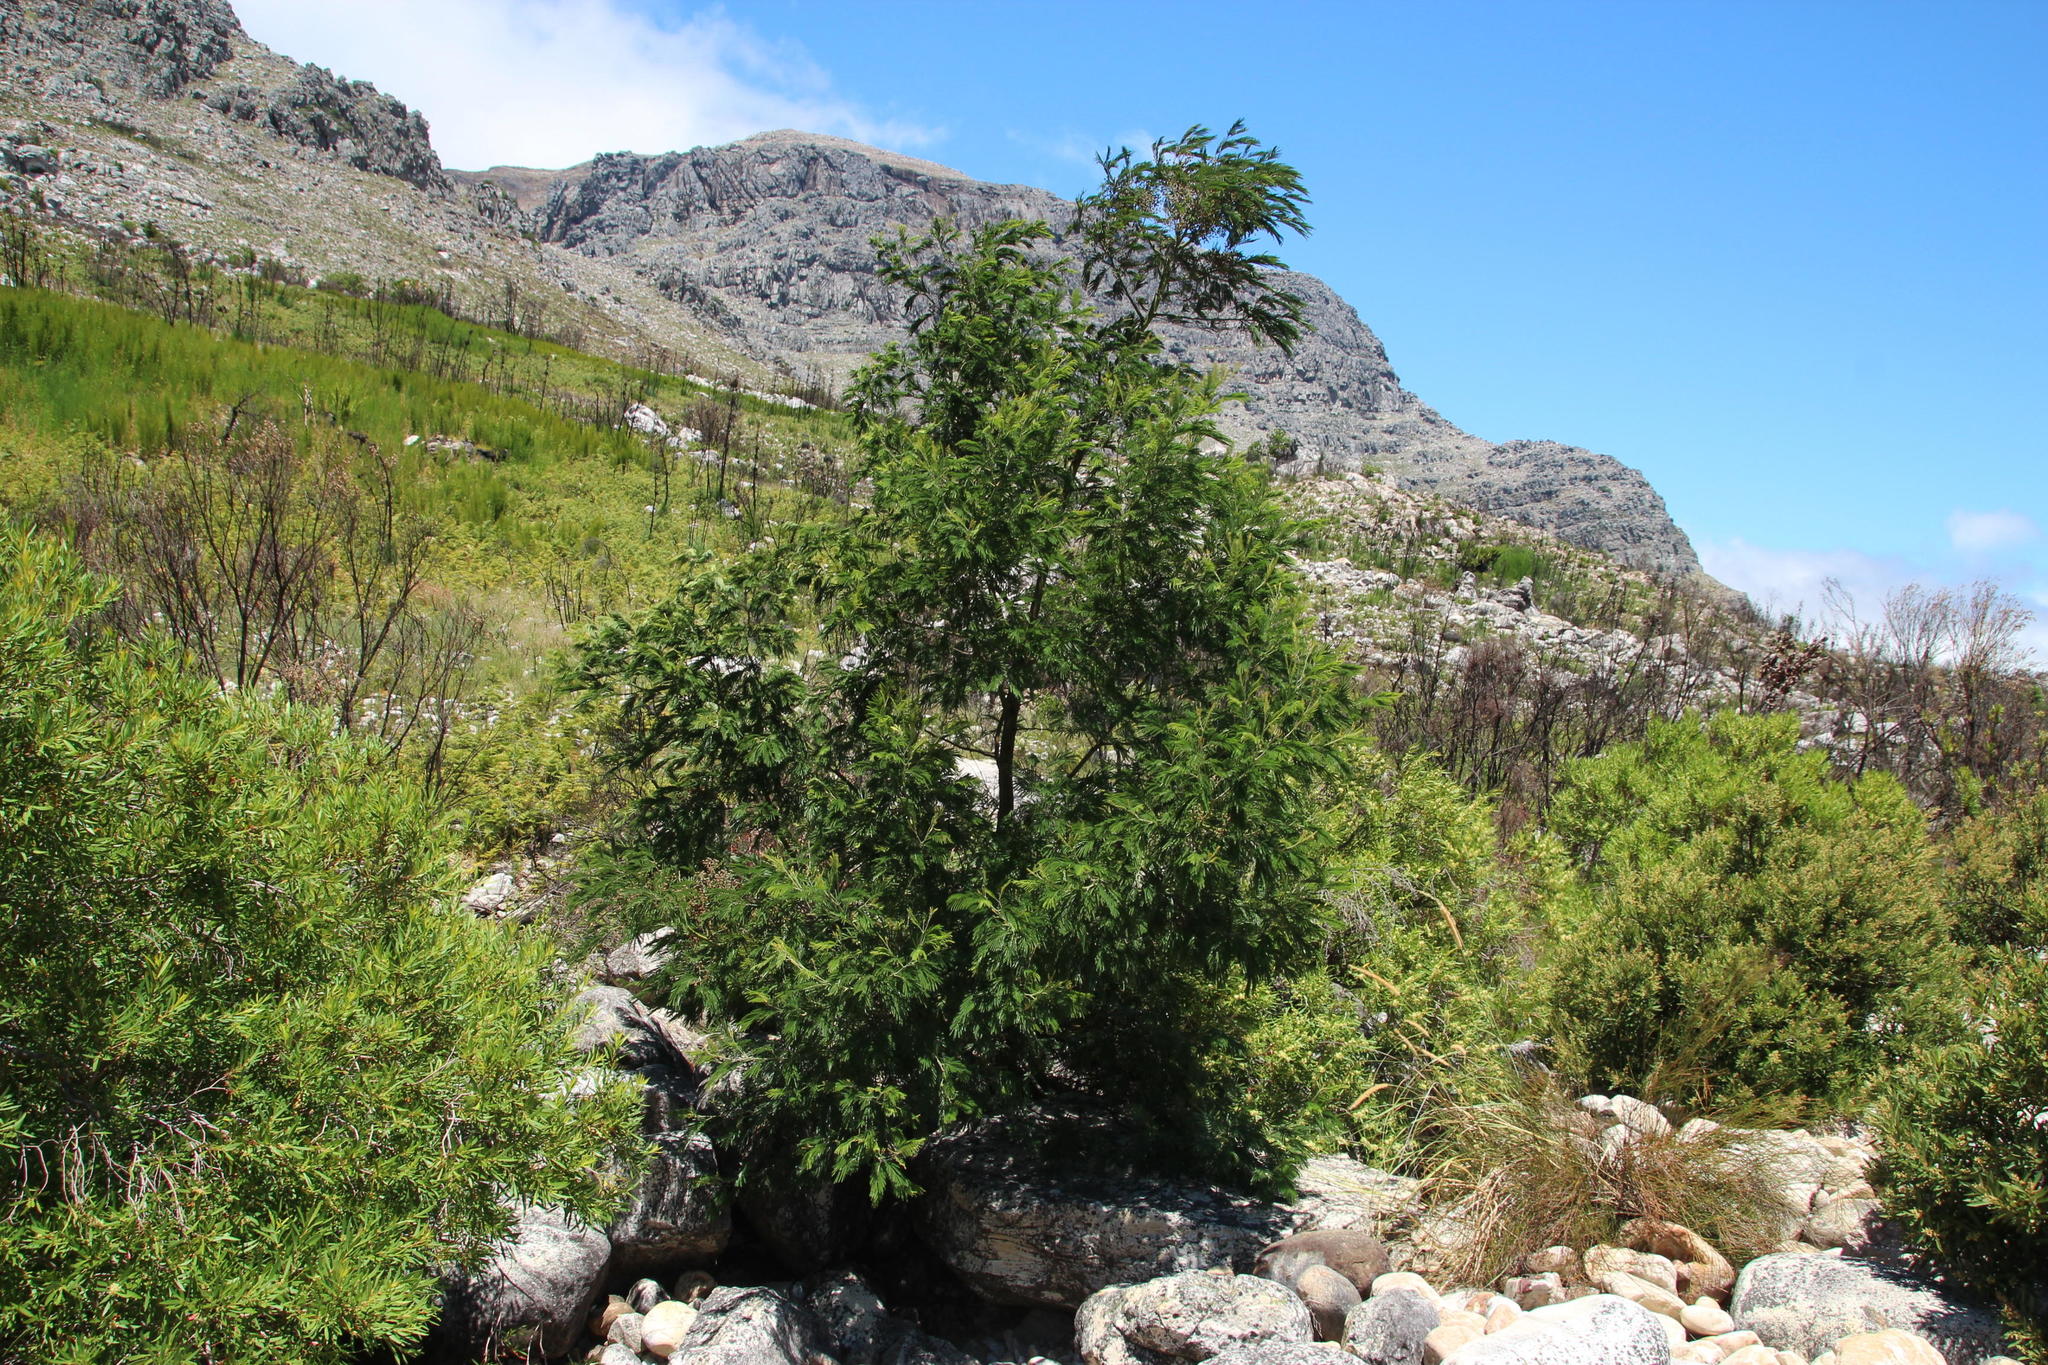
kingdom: Plantae
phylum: Tracheophyta
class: Magnoliopsida
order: Fabales
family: Fabaceae
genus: Acacia
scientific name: Acacia mearnsii
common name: Black wattle
